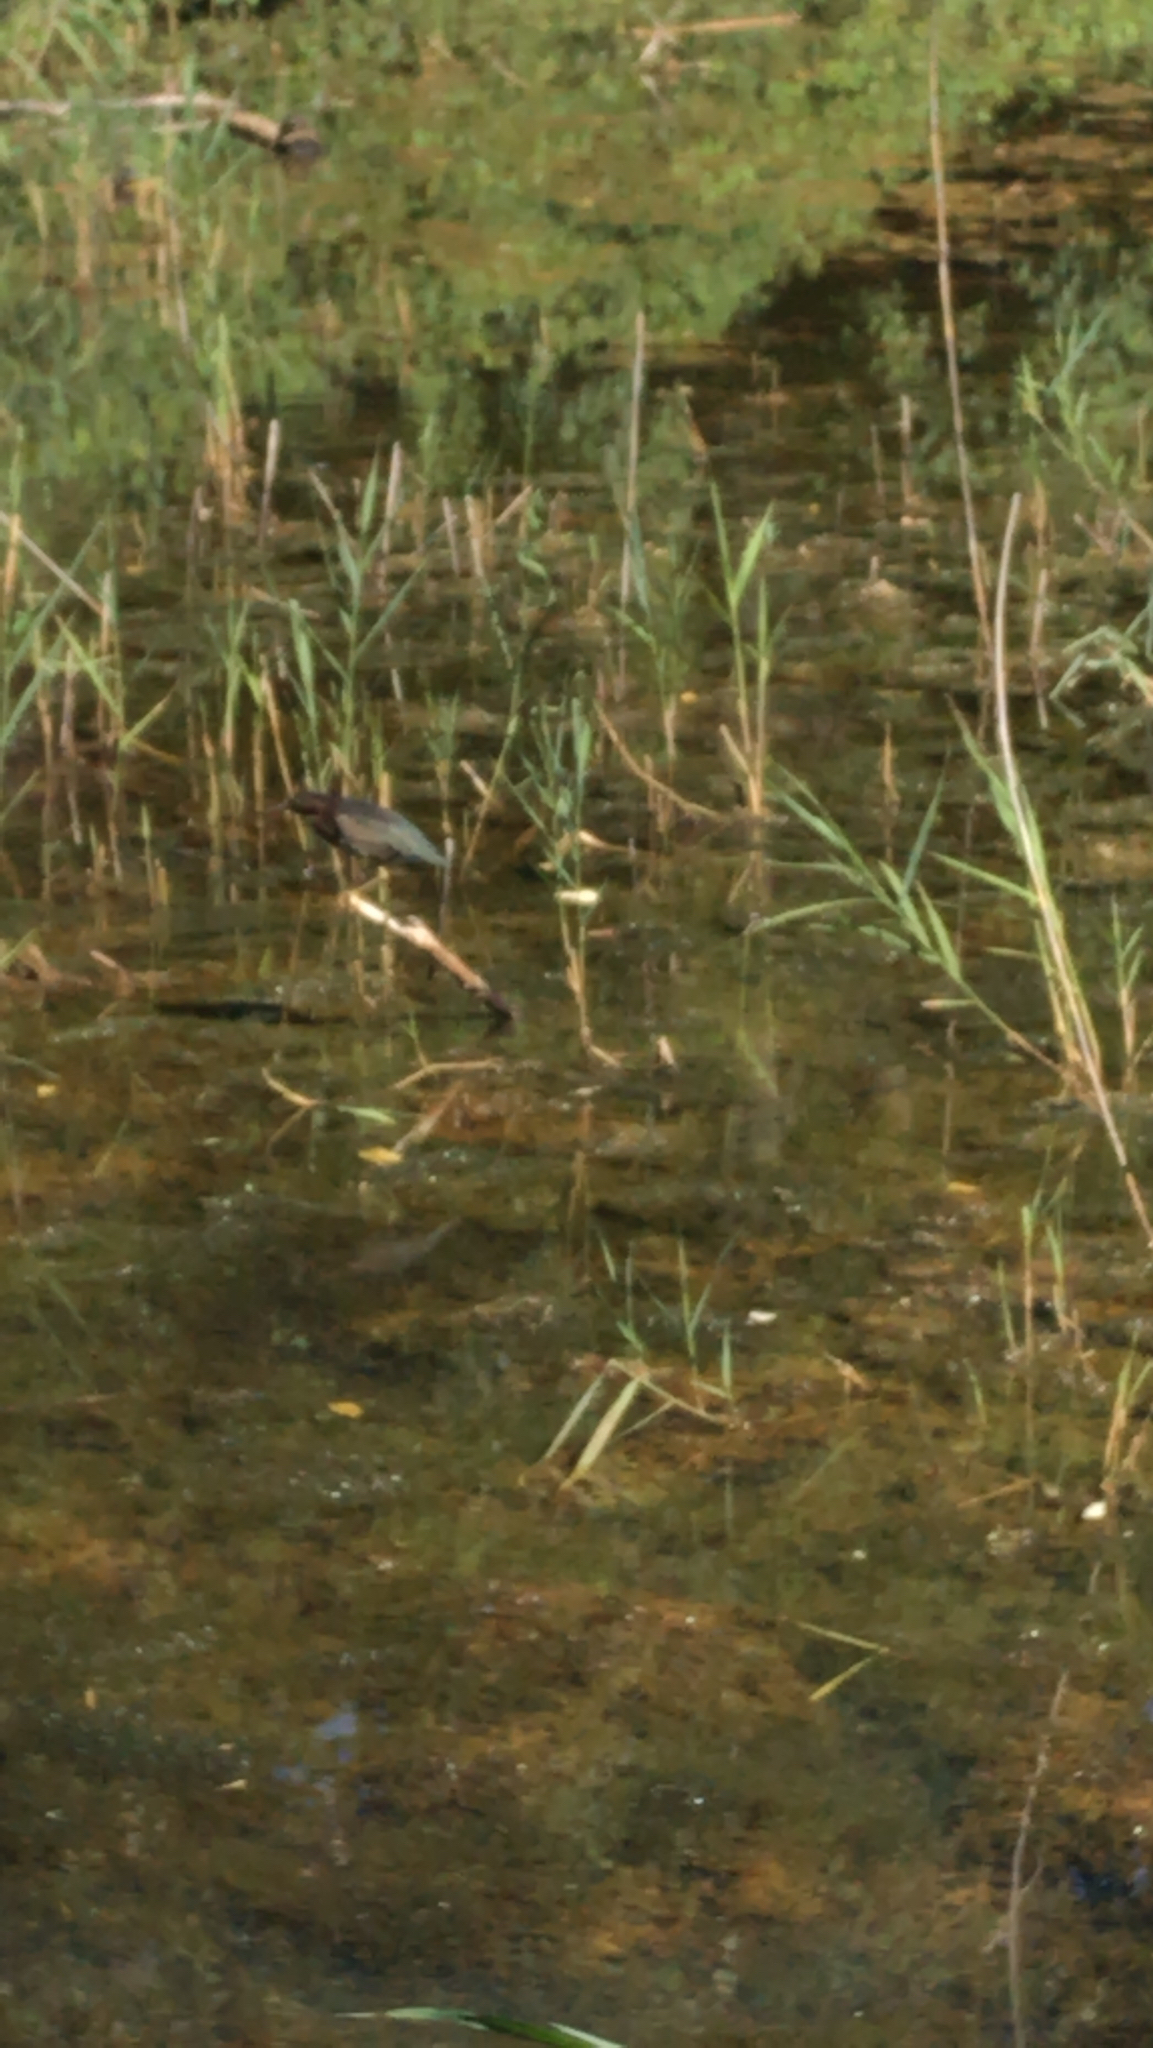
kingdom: Animalia
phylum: Chordata
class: Aves
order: Pelecaniformes
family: Ardeidae
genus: Butorides
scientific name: Butorides virescens
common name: Green heron
